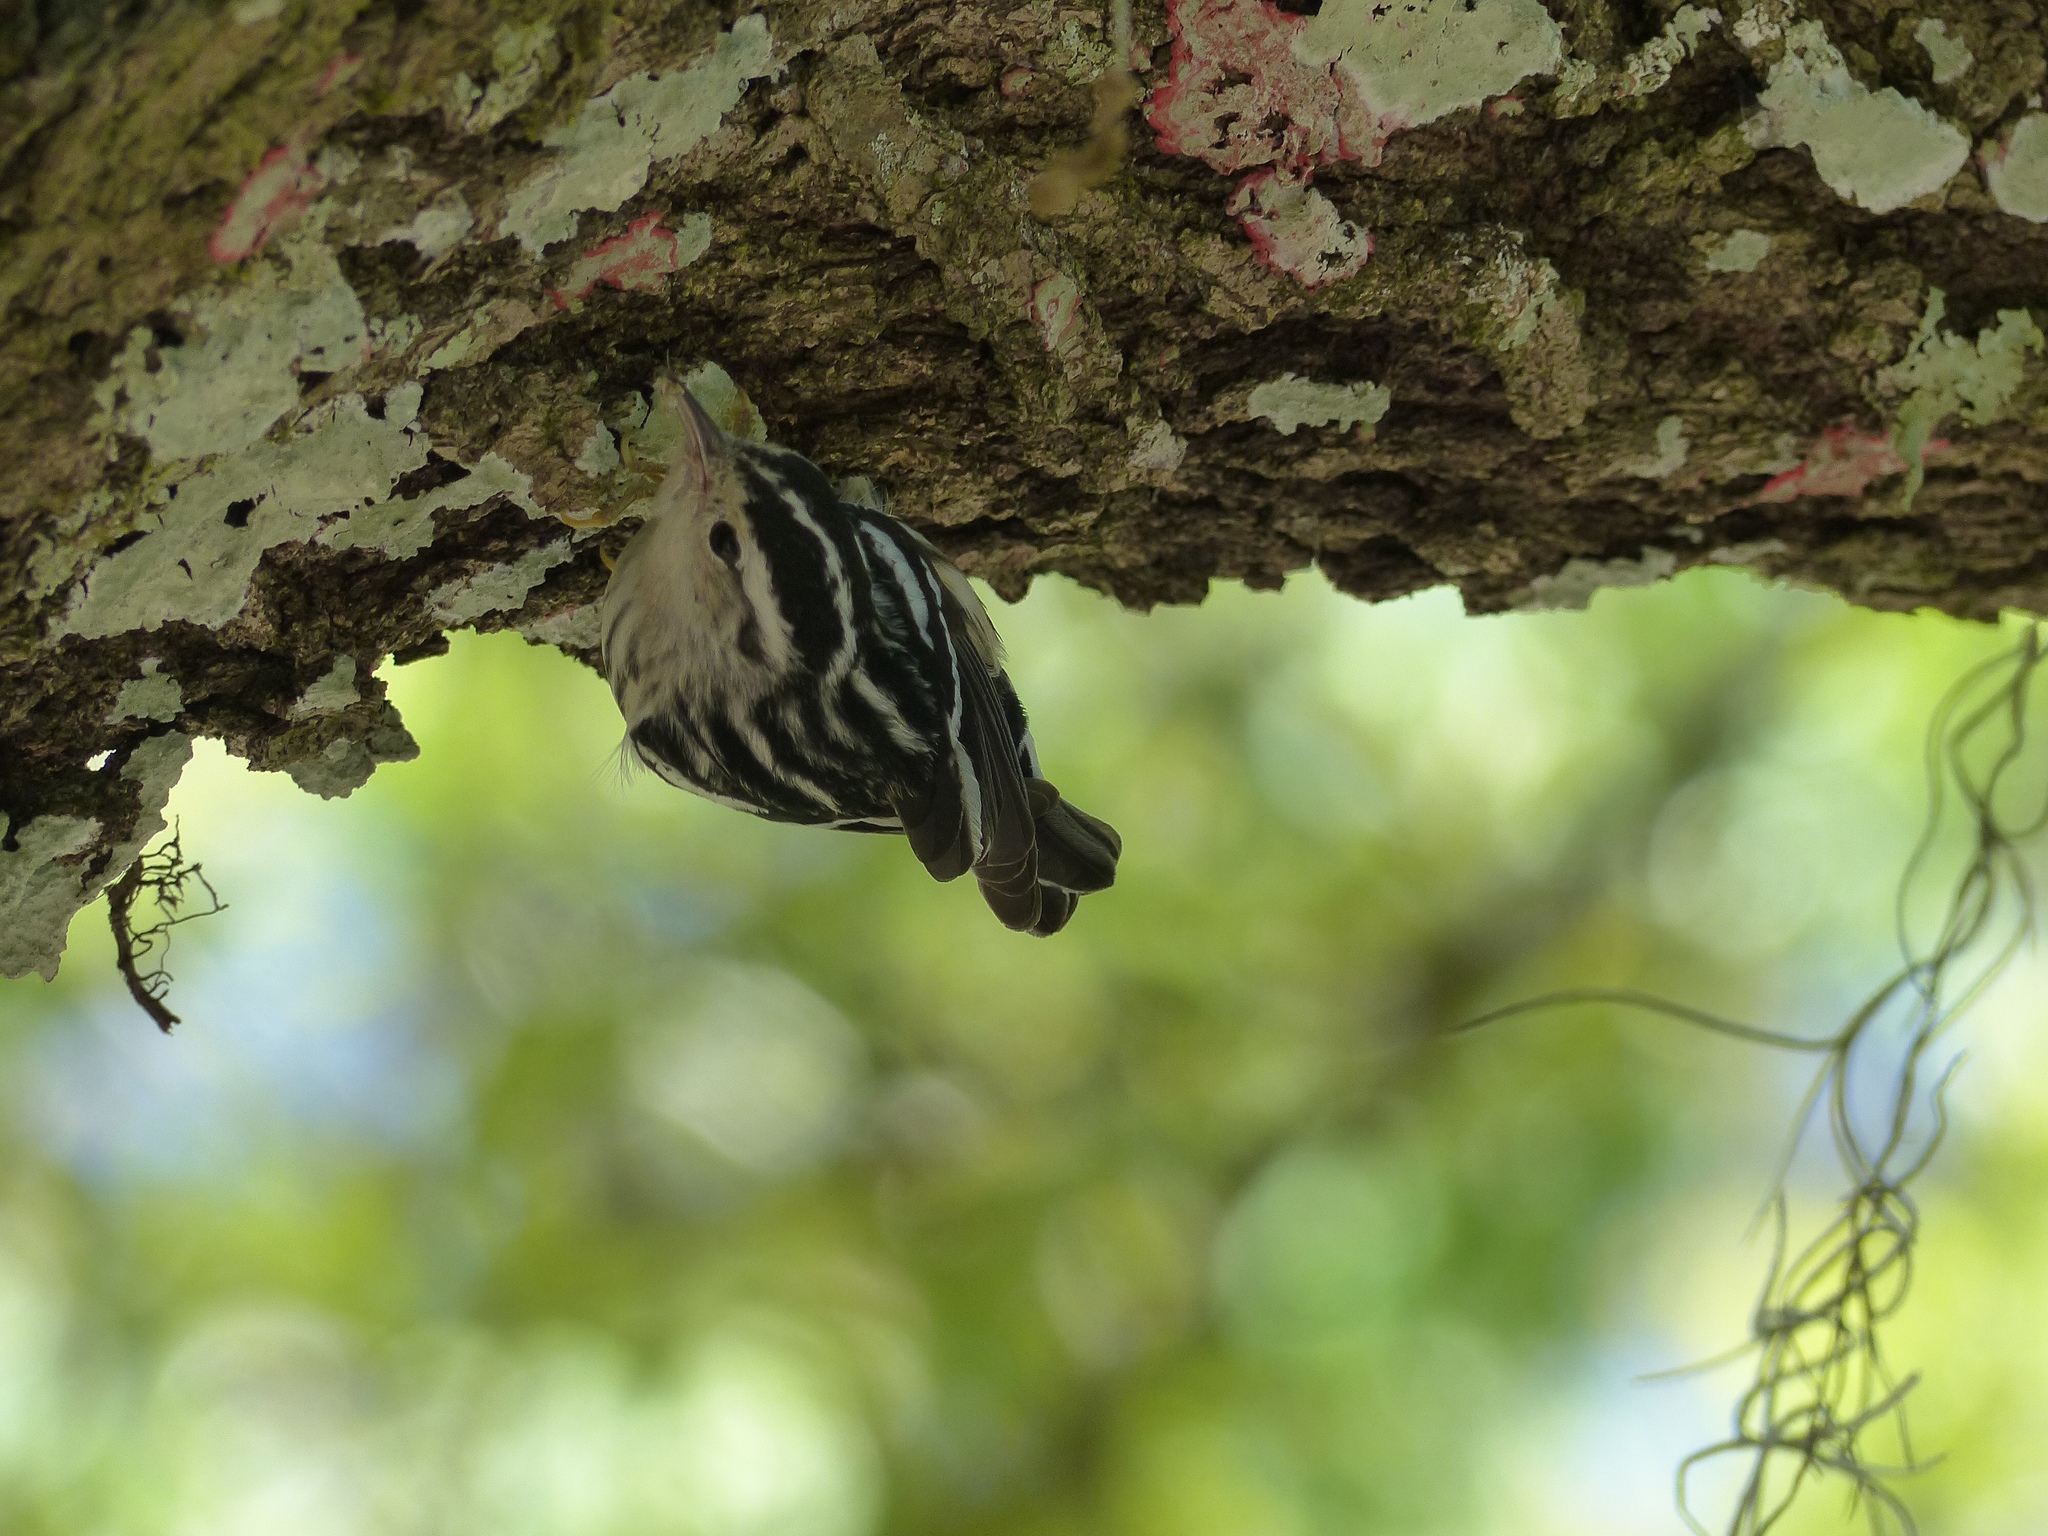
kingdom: Animalia
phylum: Chordata
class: Aves
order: Passeriformes
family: Parulidae
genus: Mniotilta
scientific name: Mniotilta varia
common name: Black-and-white warbler
